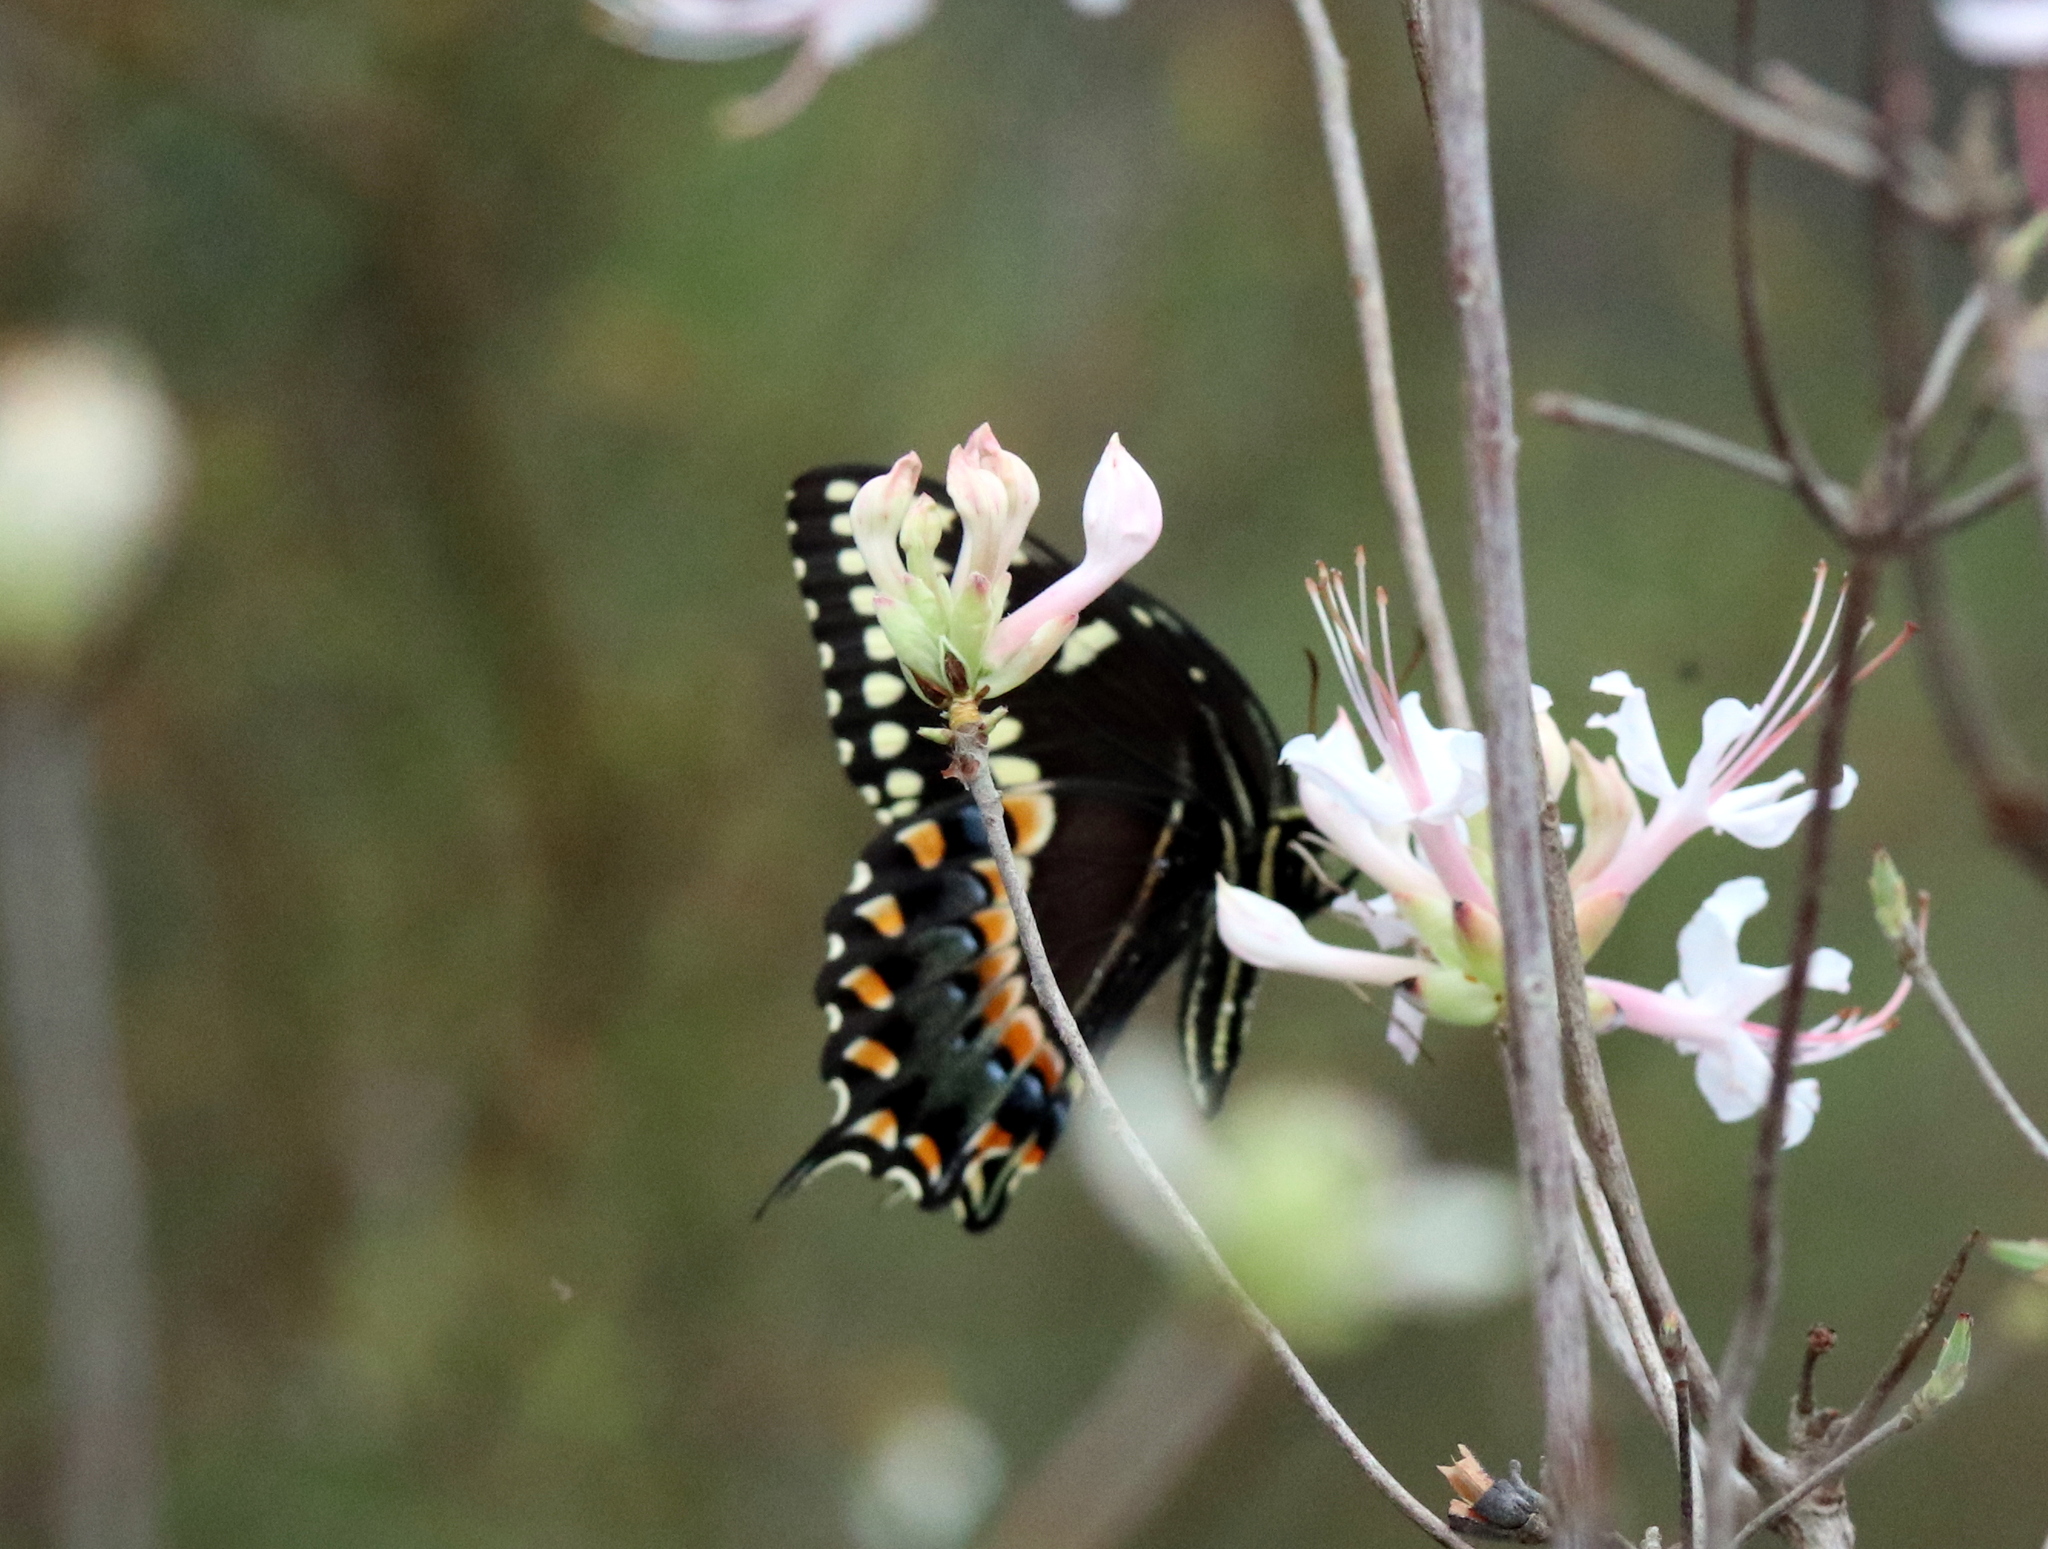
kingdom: Animalia
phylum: Arthropoda
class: Insecta
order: Lepidoptera
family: Papilionidae
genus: Papilio
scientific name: Papilio palamedes
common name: Palamedes swallowtail
